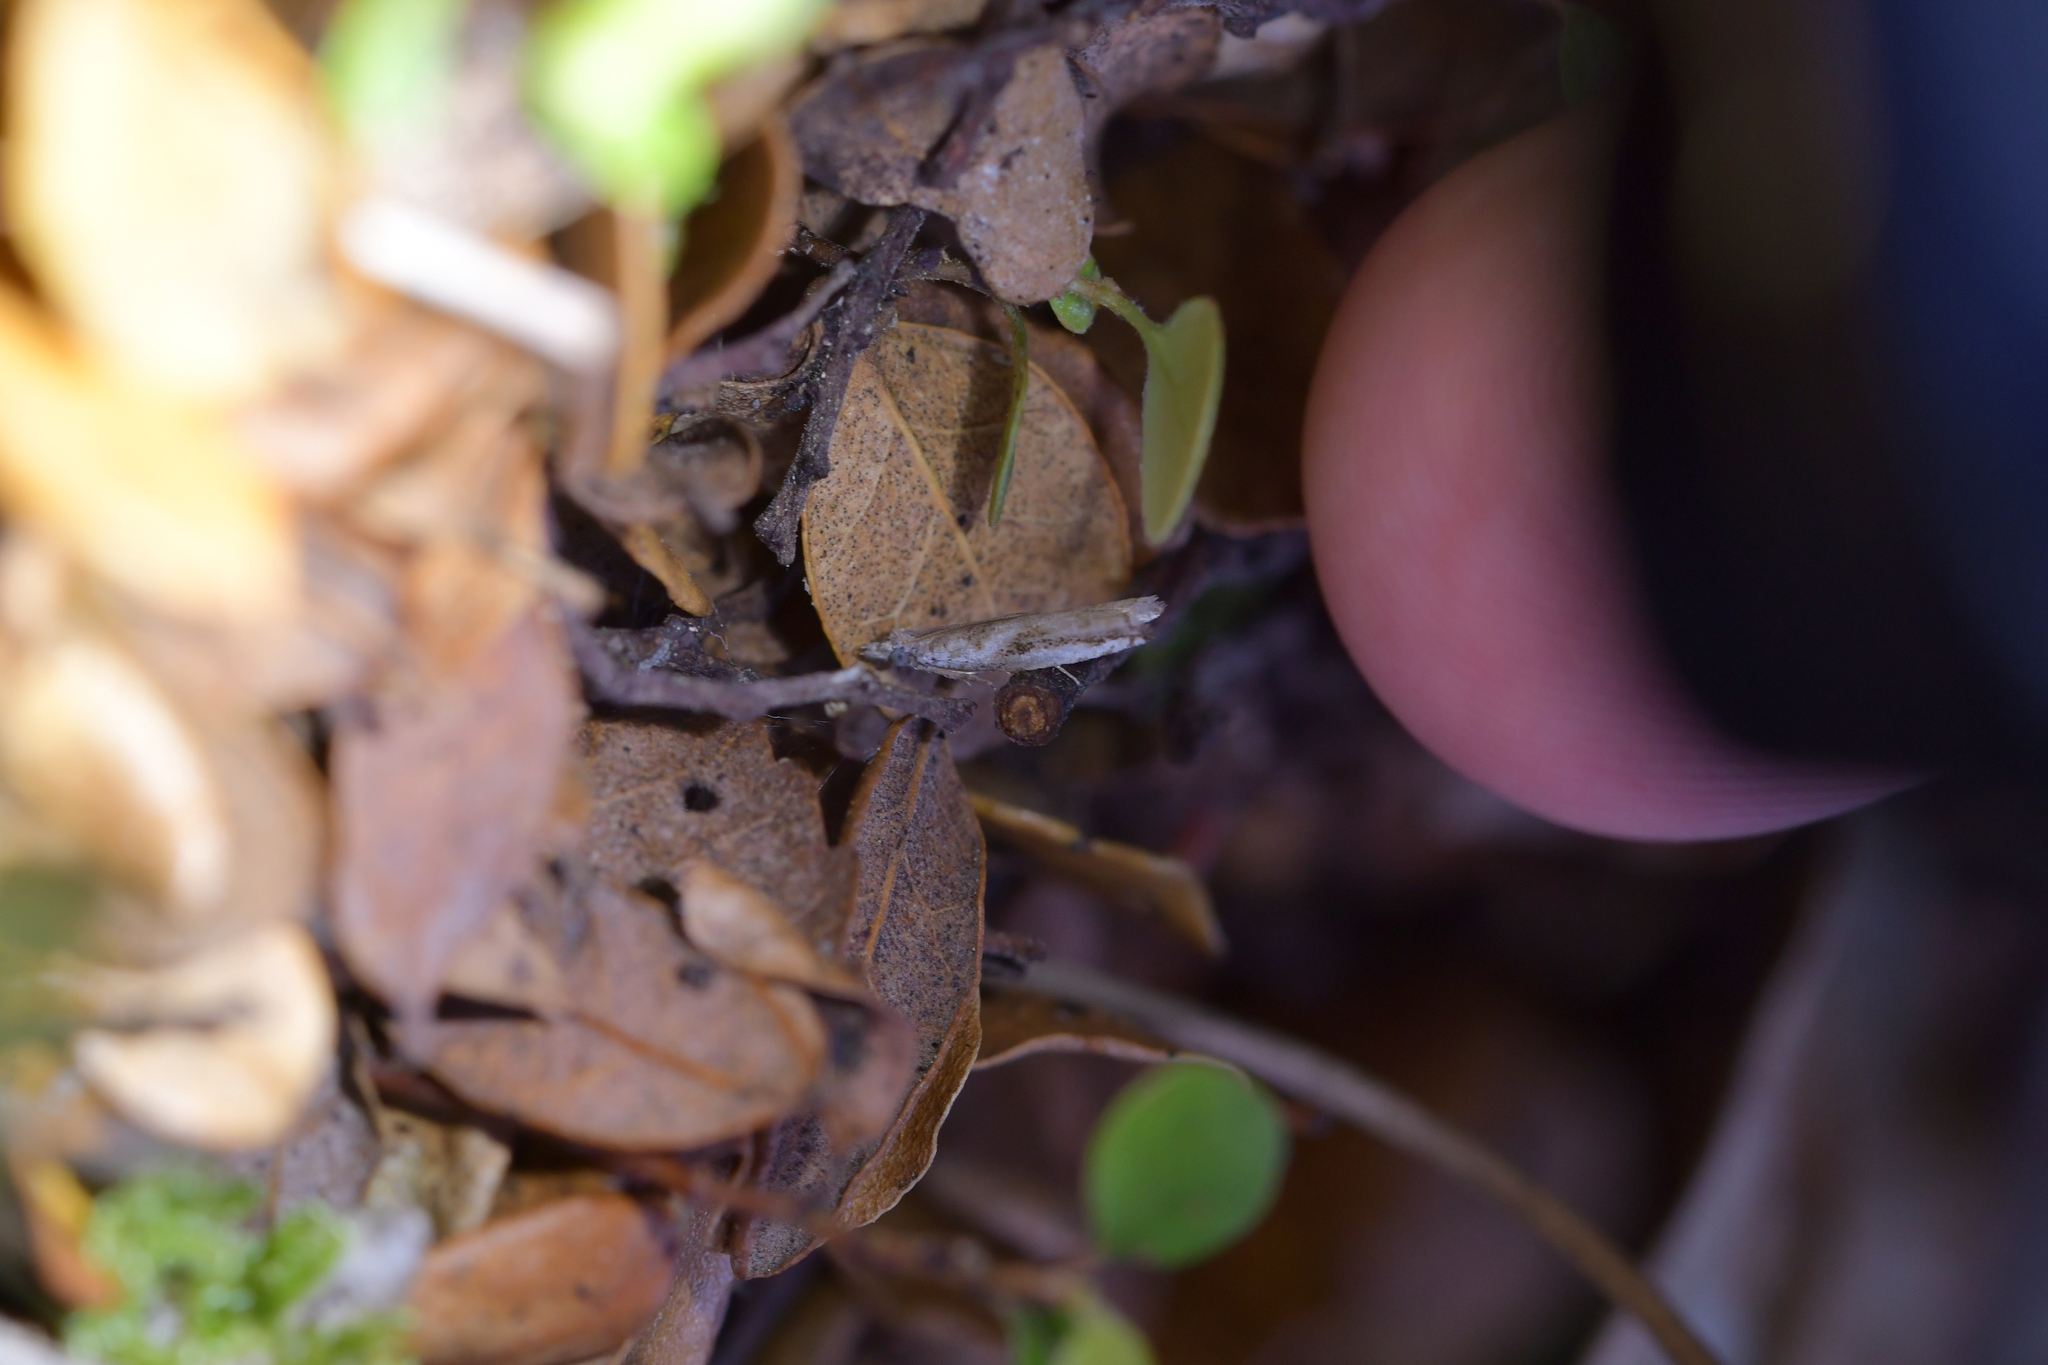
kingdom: Animalia
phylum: Arthropoda
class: Insecta
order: Lepidoptera
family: Tortricidae
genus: Holocola
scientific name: Holocola
